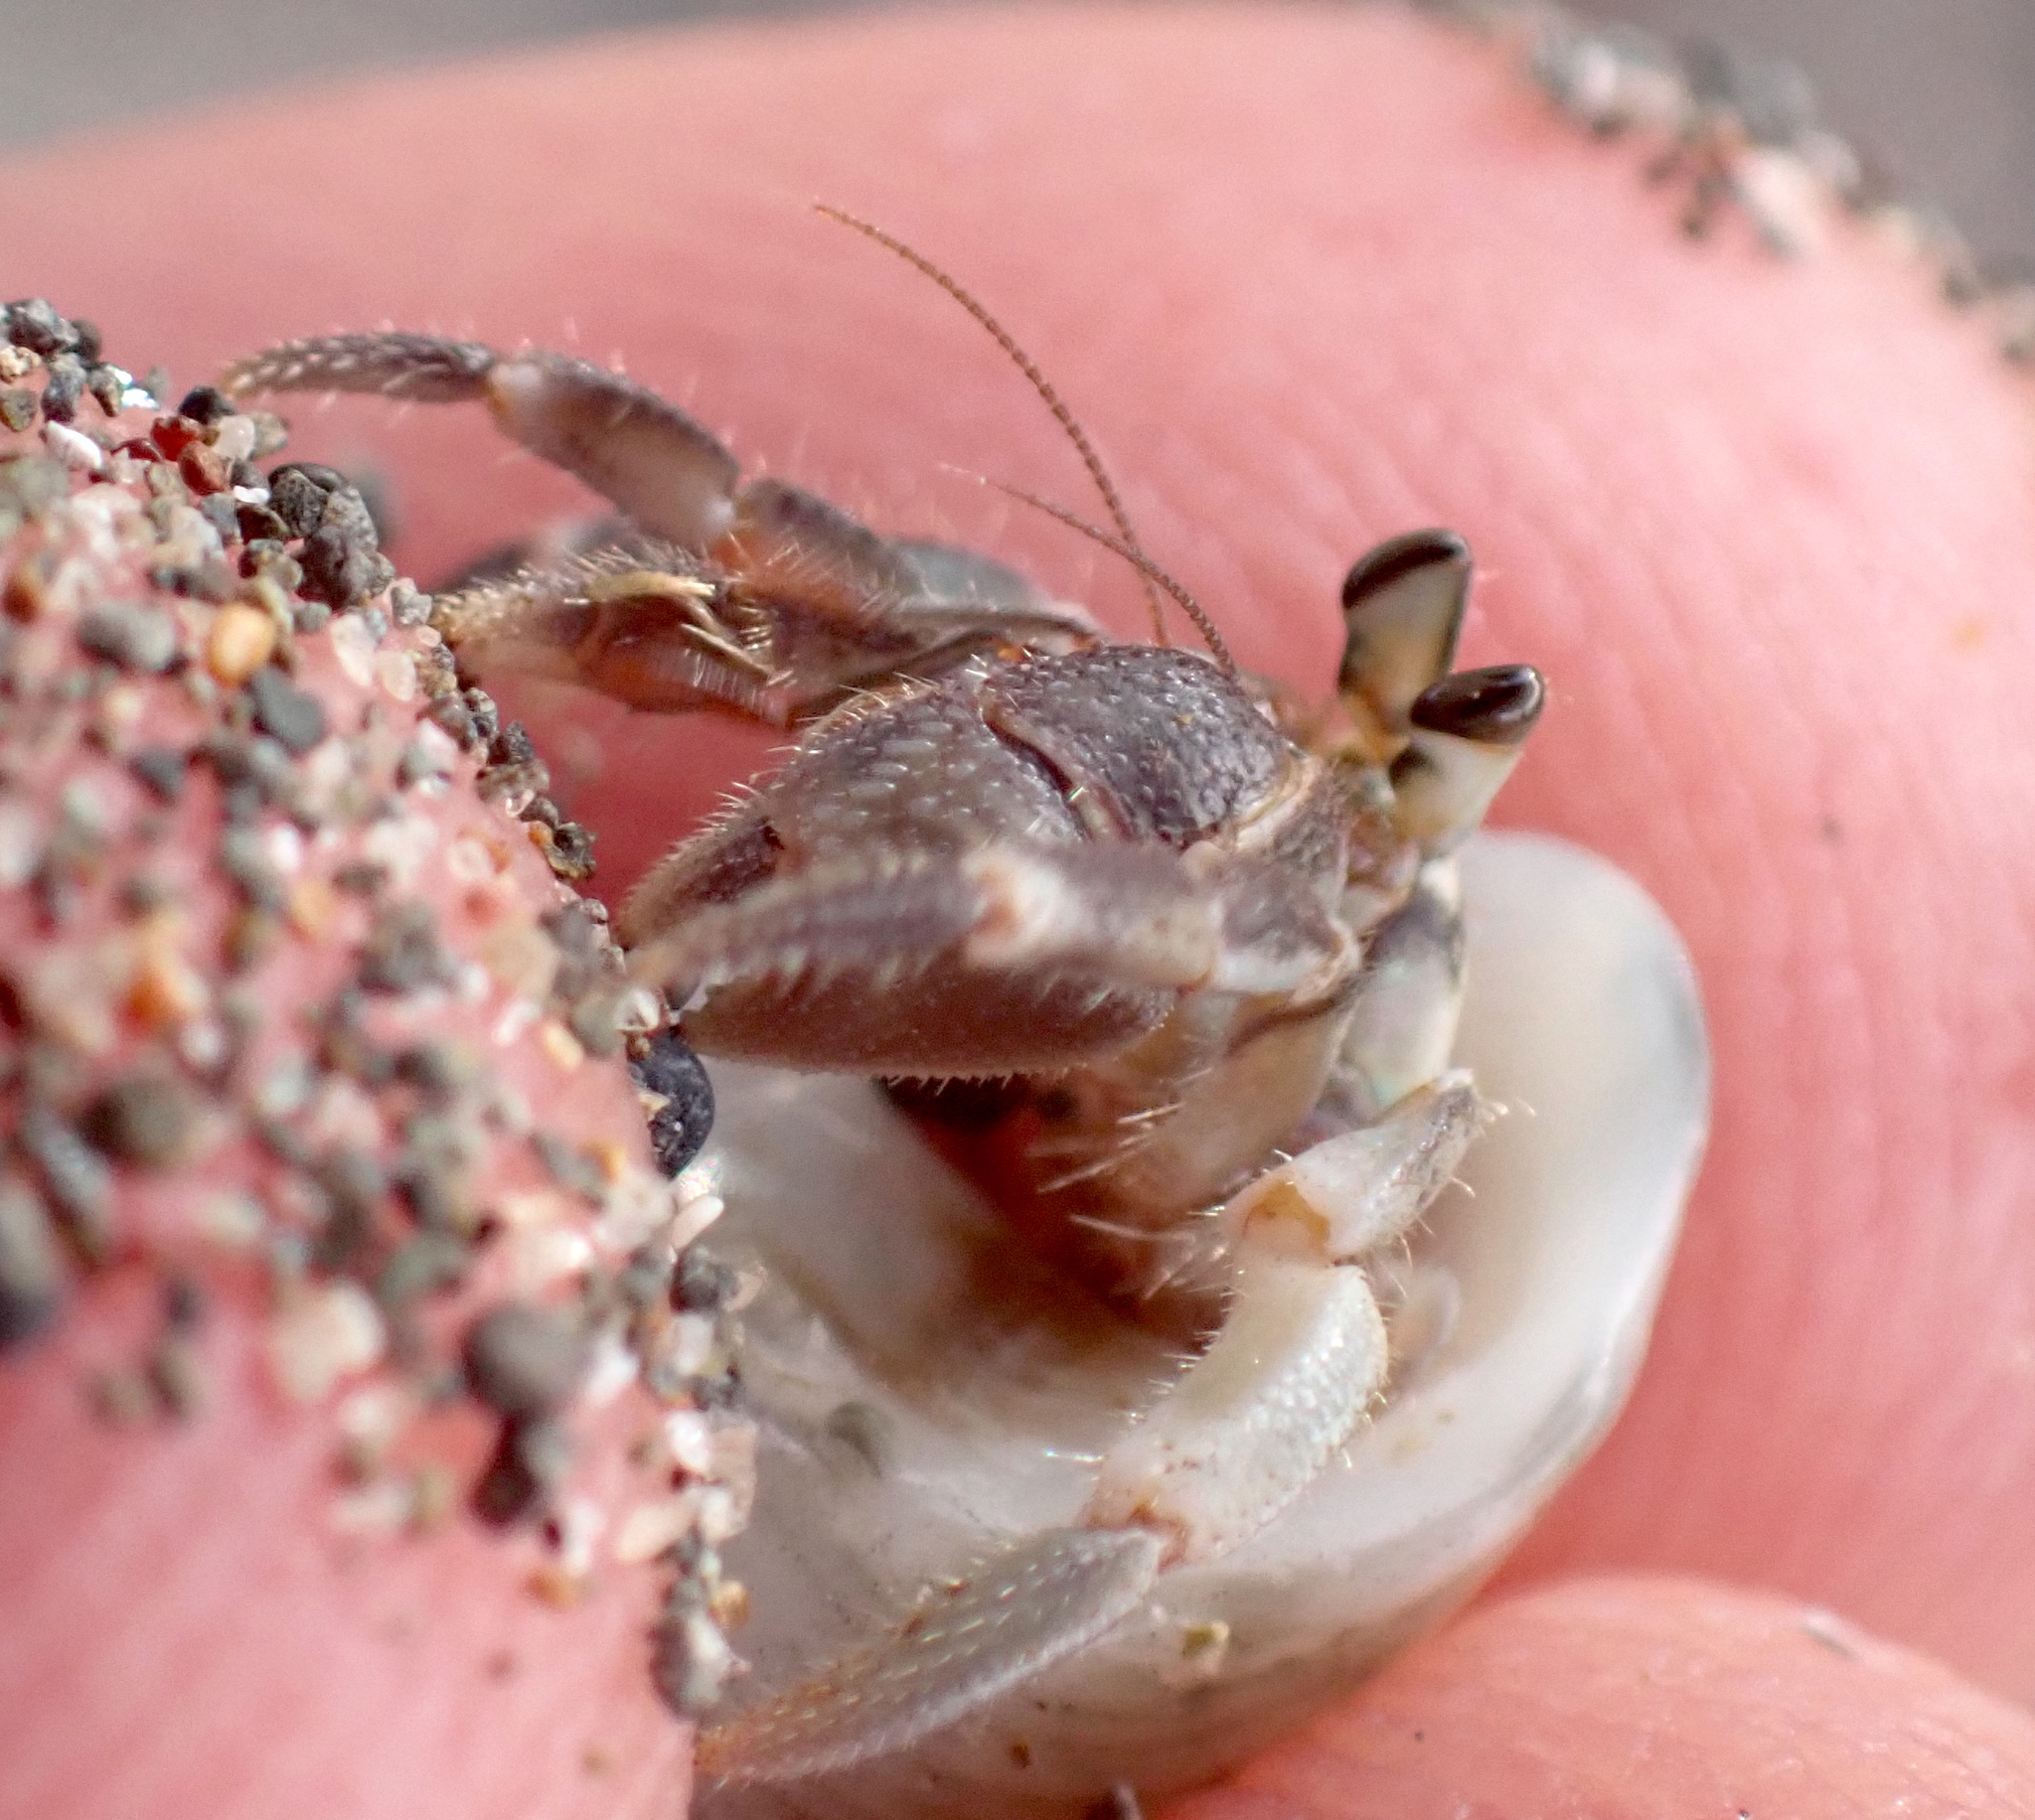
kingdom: Animalia
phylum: Arthropoda
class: Malacostraca
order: Decapoda
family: Coenobitidae
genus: Coenobita
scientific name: Coenobita rugosus
